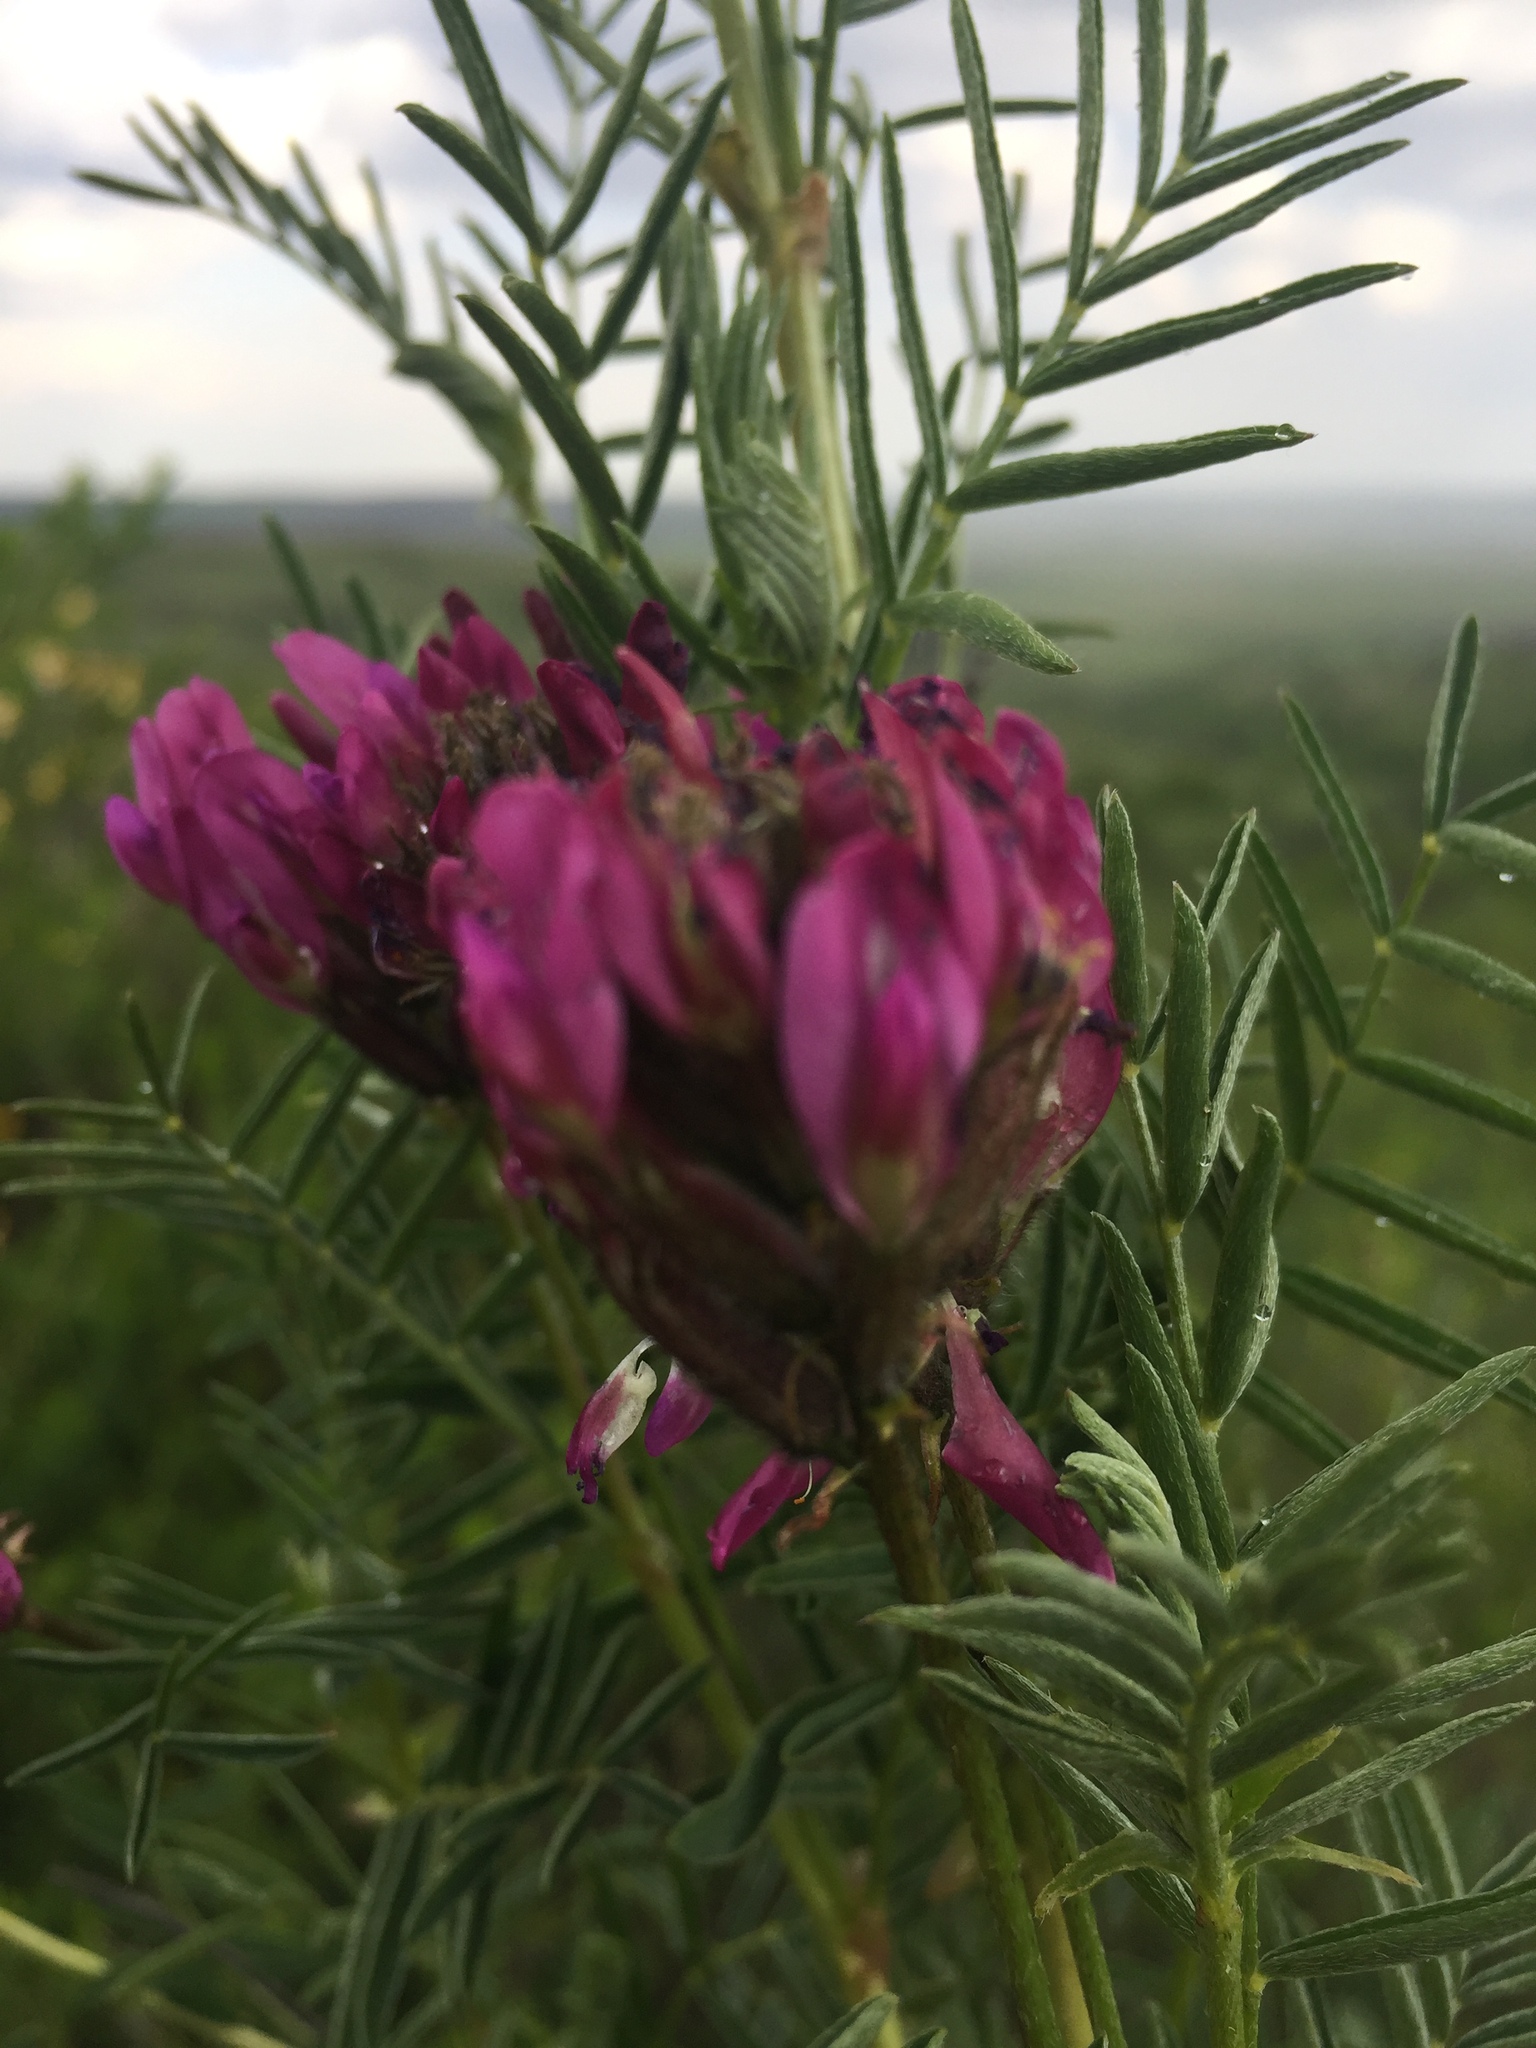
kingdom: Plantae
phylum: Tracheophyta
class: Magnoliopsida
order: Fabales
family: Fabaceae
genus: Astragalus
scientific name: Astragalus cornutus
